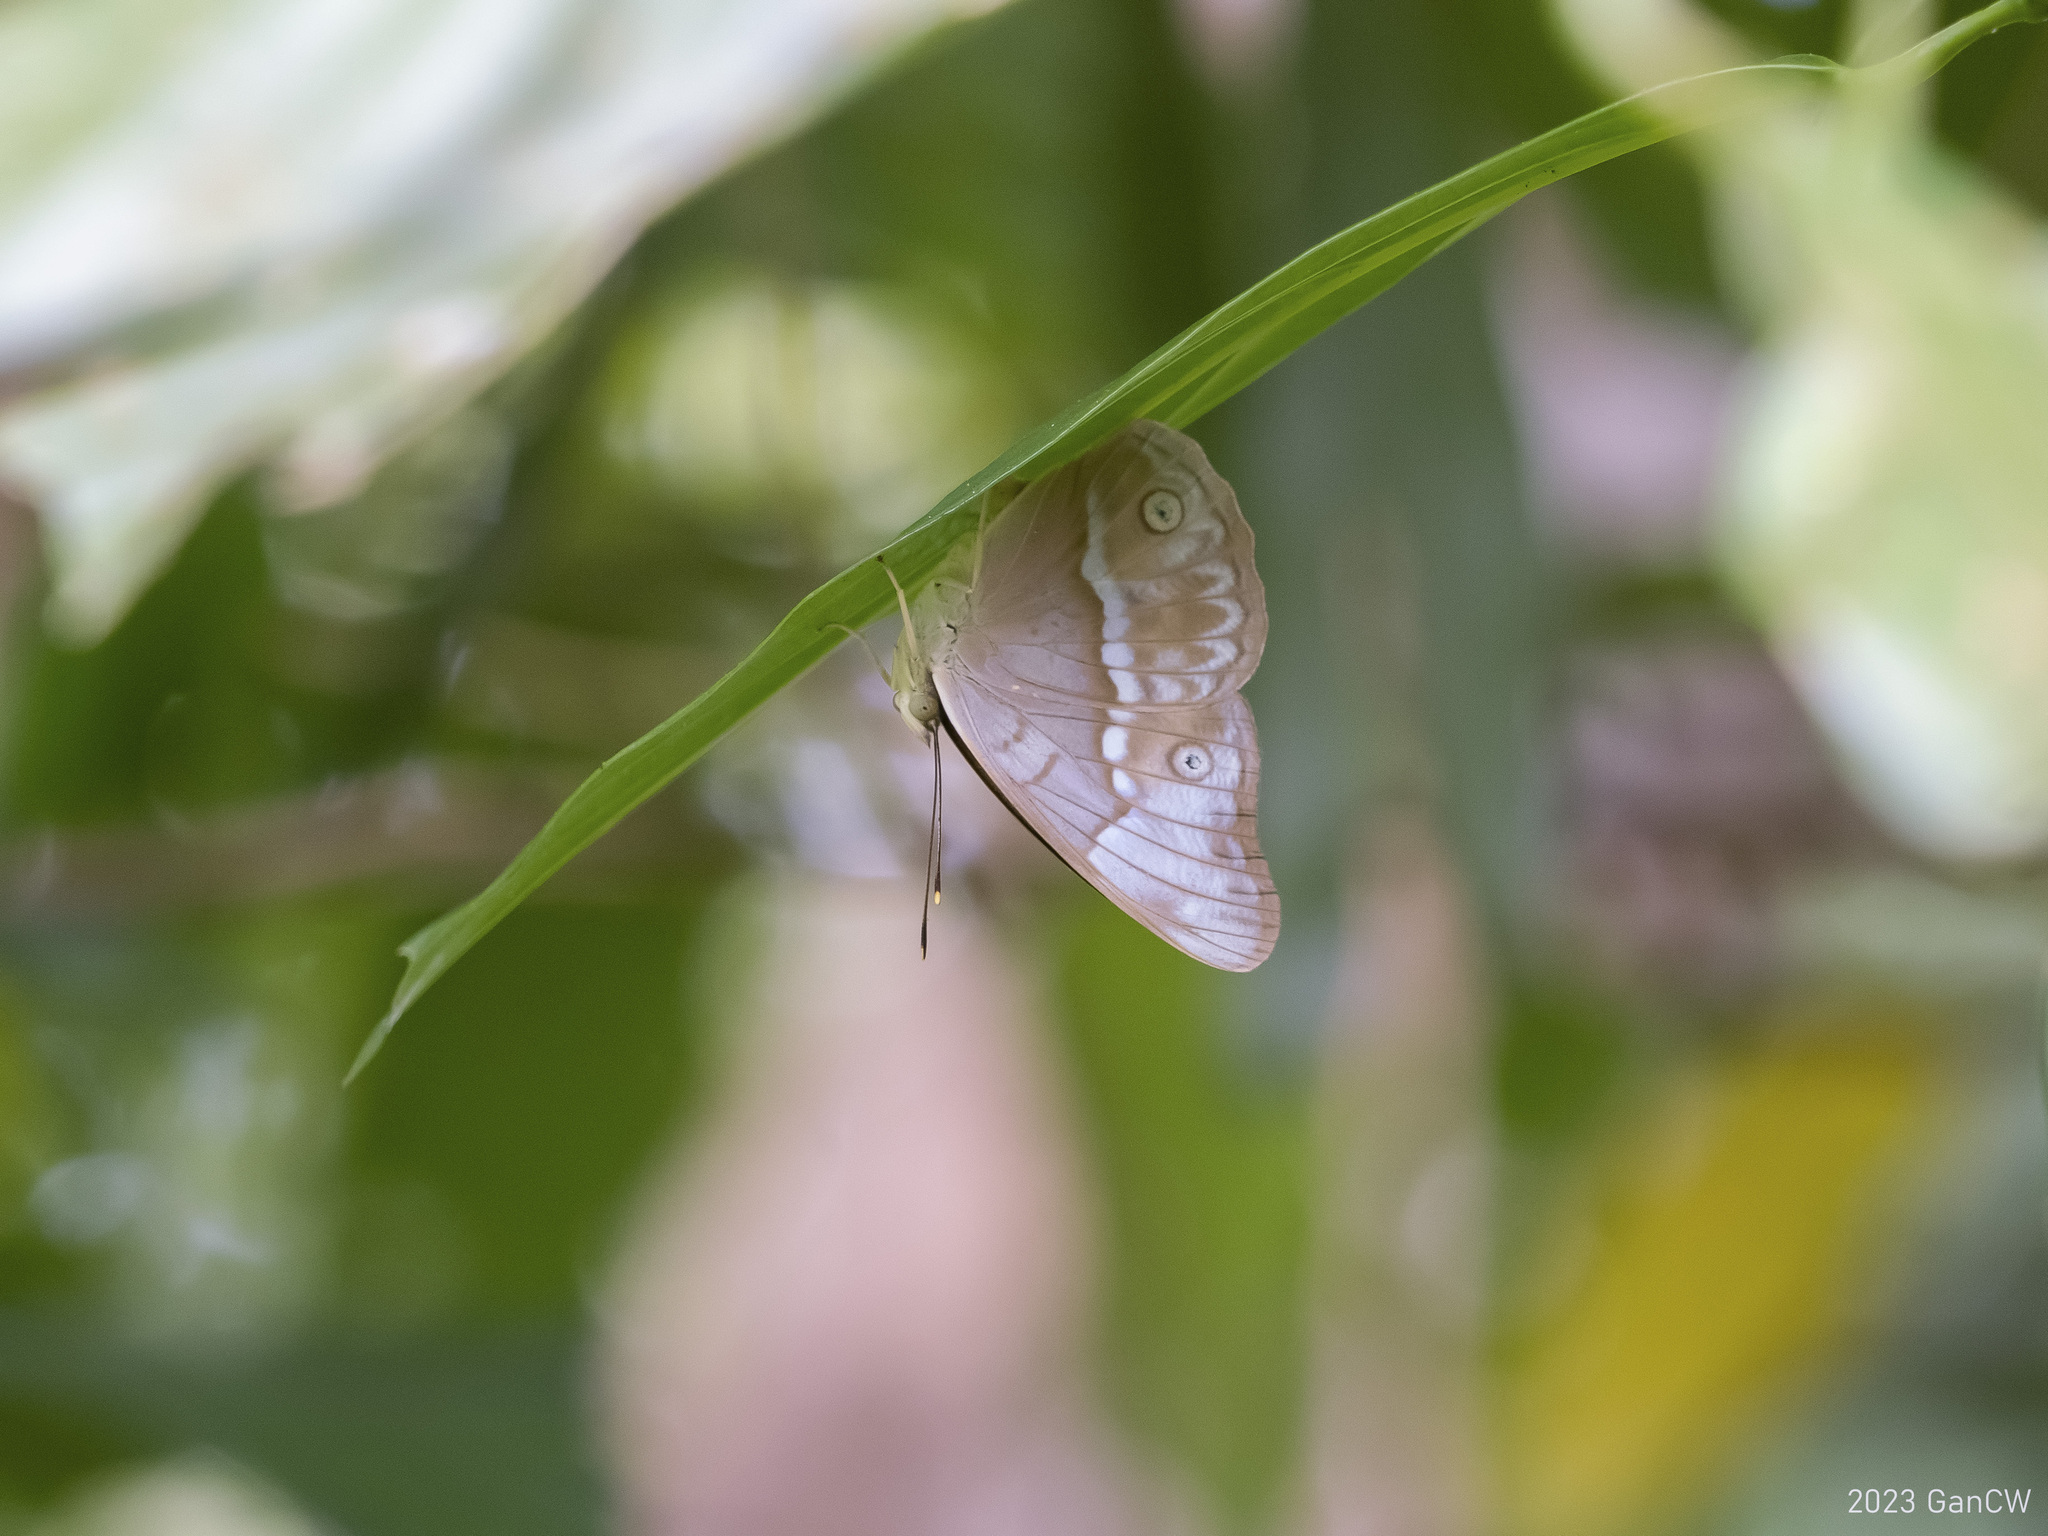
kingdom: Animalia
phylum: Arthropoda
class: Insecta
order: Lepidoptera
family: Nymphalidae
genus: Eulaceura
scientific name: Eulaceura osteria
